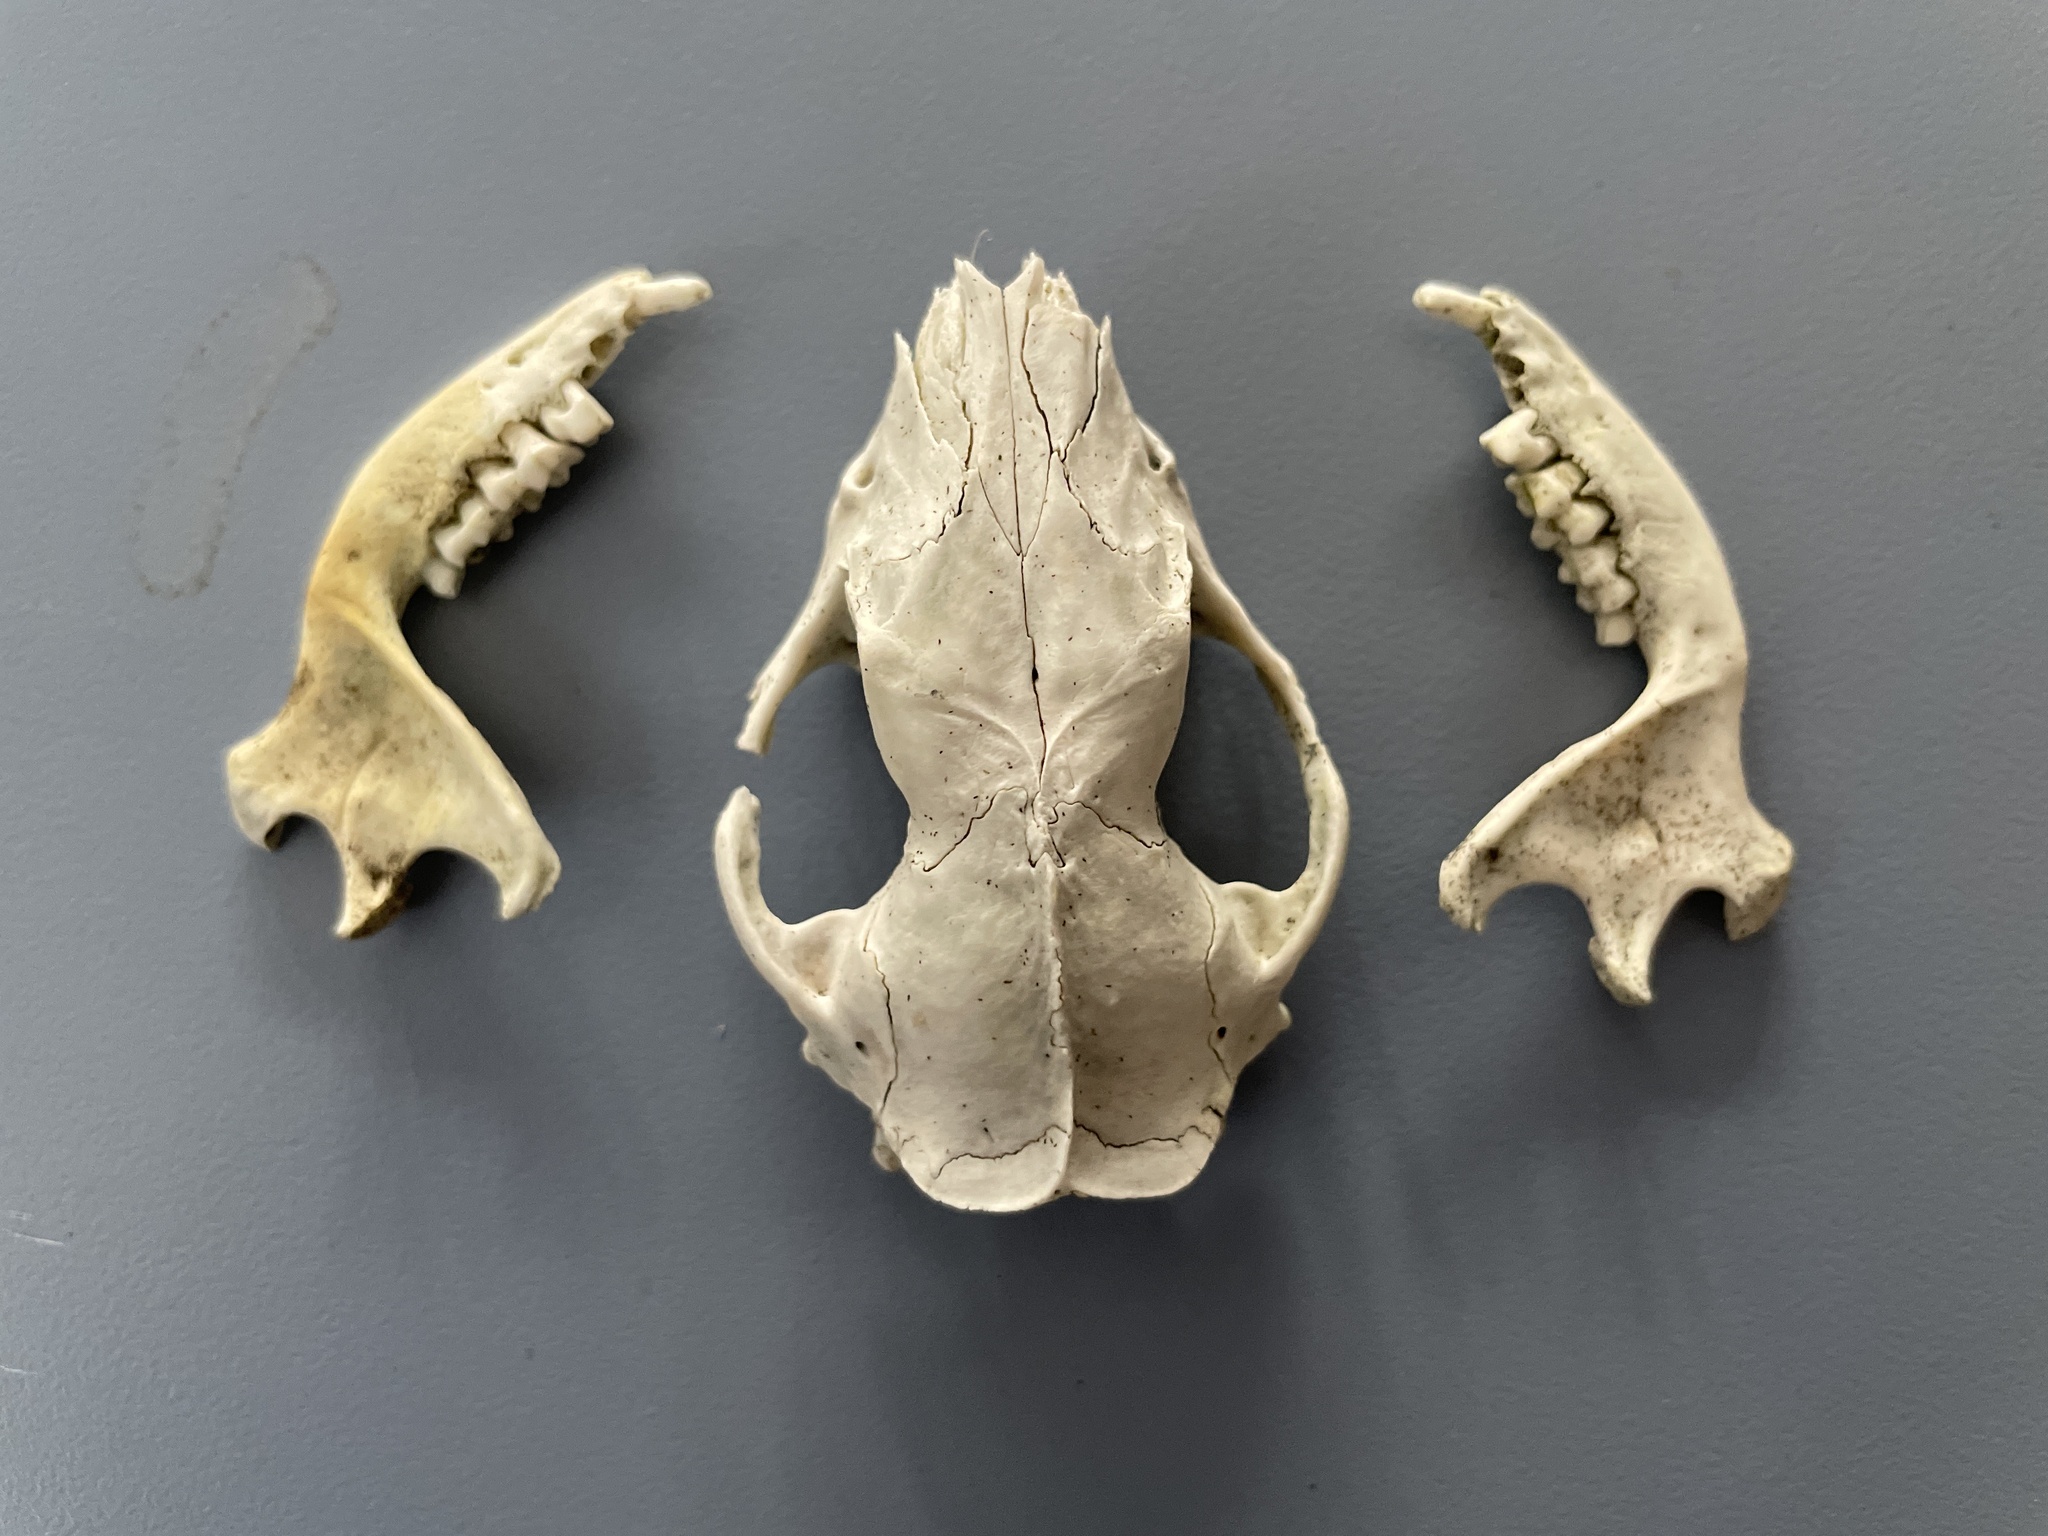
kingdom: Animalia
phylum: Chordata
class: Mammalia
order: Erinaceomorpha
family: Erinaceidae
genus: Erinaceus
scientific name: Erinaceus europaeus
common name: West european hedgehog
